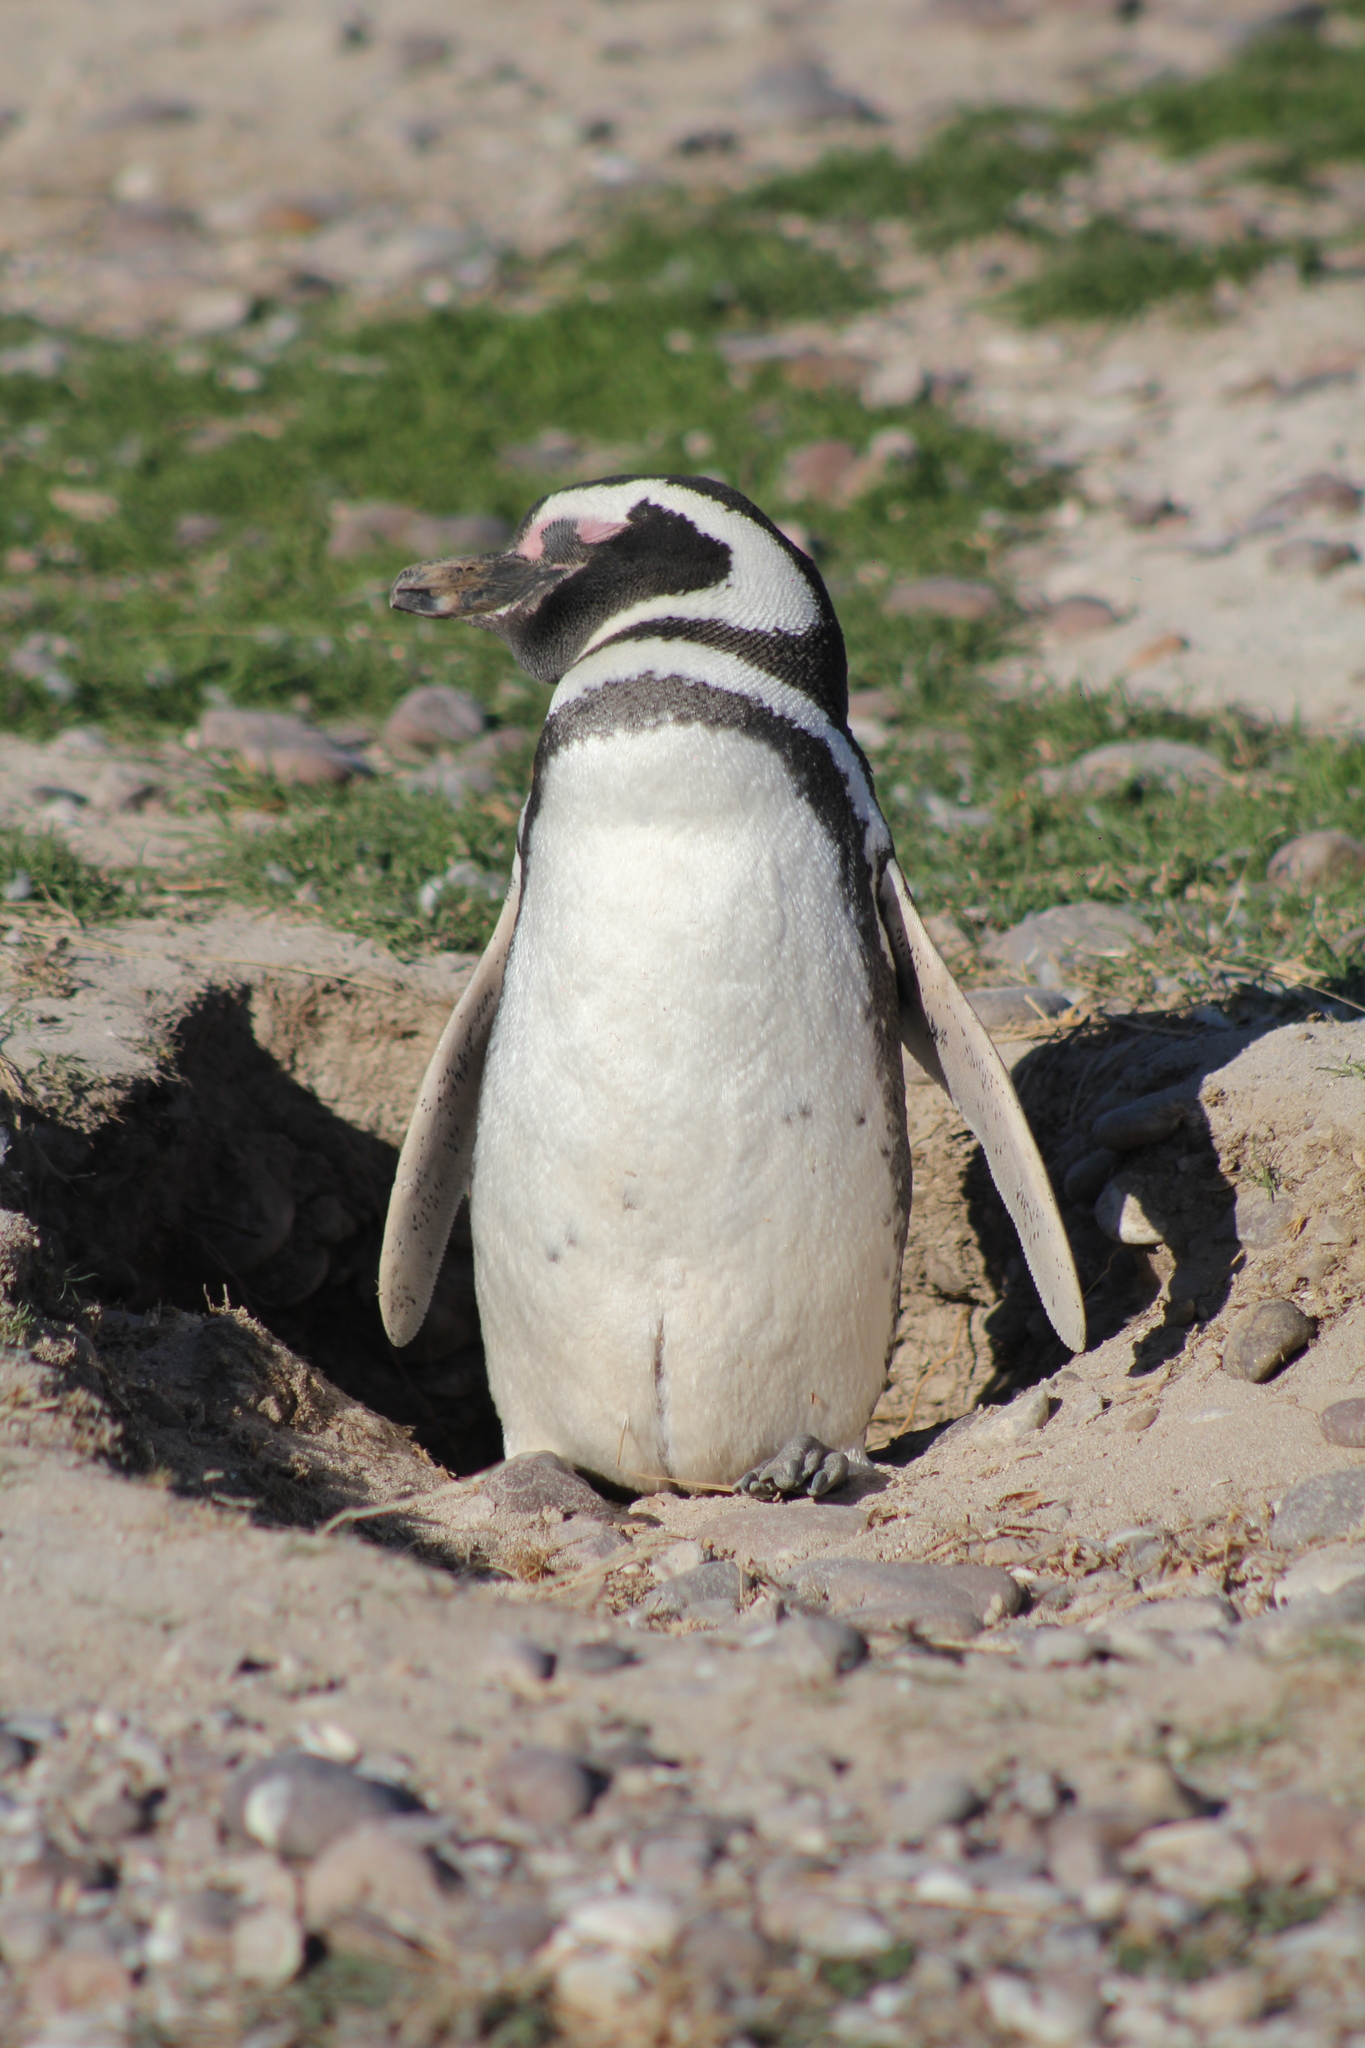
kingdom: Animalia
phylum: Chordata
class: Aves
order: Sphenisciformes
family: Spheniscidae
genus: Spheniscus
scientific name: Spheniscus magellanicus
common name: Magellanic penguin
